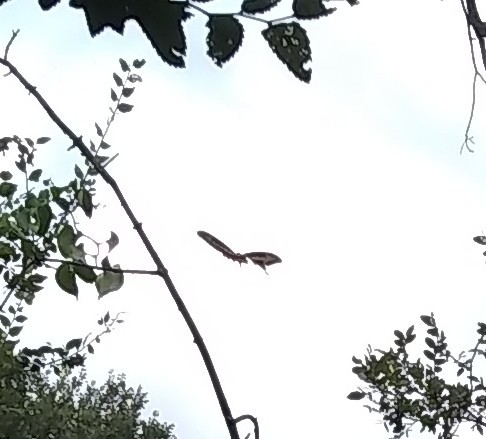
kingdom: Animalia
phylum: Arthropoda
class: Insecta
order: Lepidoptera
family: Papilionidae
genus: Papilio
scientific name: Papilio cresphontes
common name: Giant swallowtail
